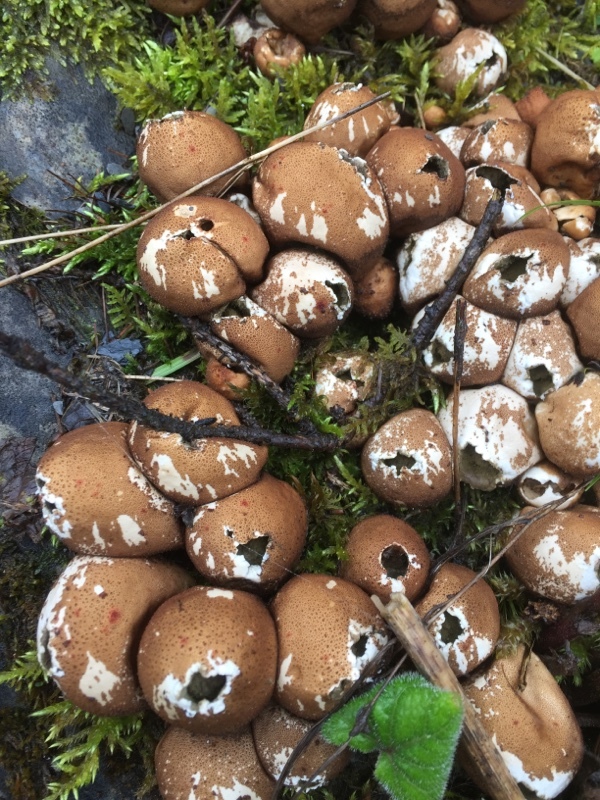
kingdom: Fungi
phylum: Basidiomycota
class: Agaricomycetes
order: Agaricales
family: Lycoperdaceae
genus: Apioperdon
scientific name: Apioperdon pyriforme
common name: Pear-shaped puffball
